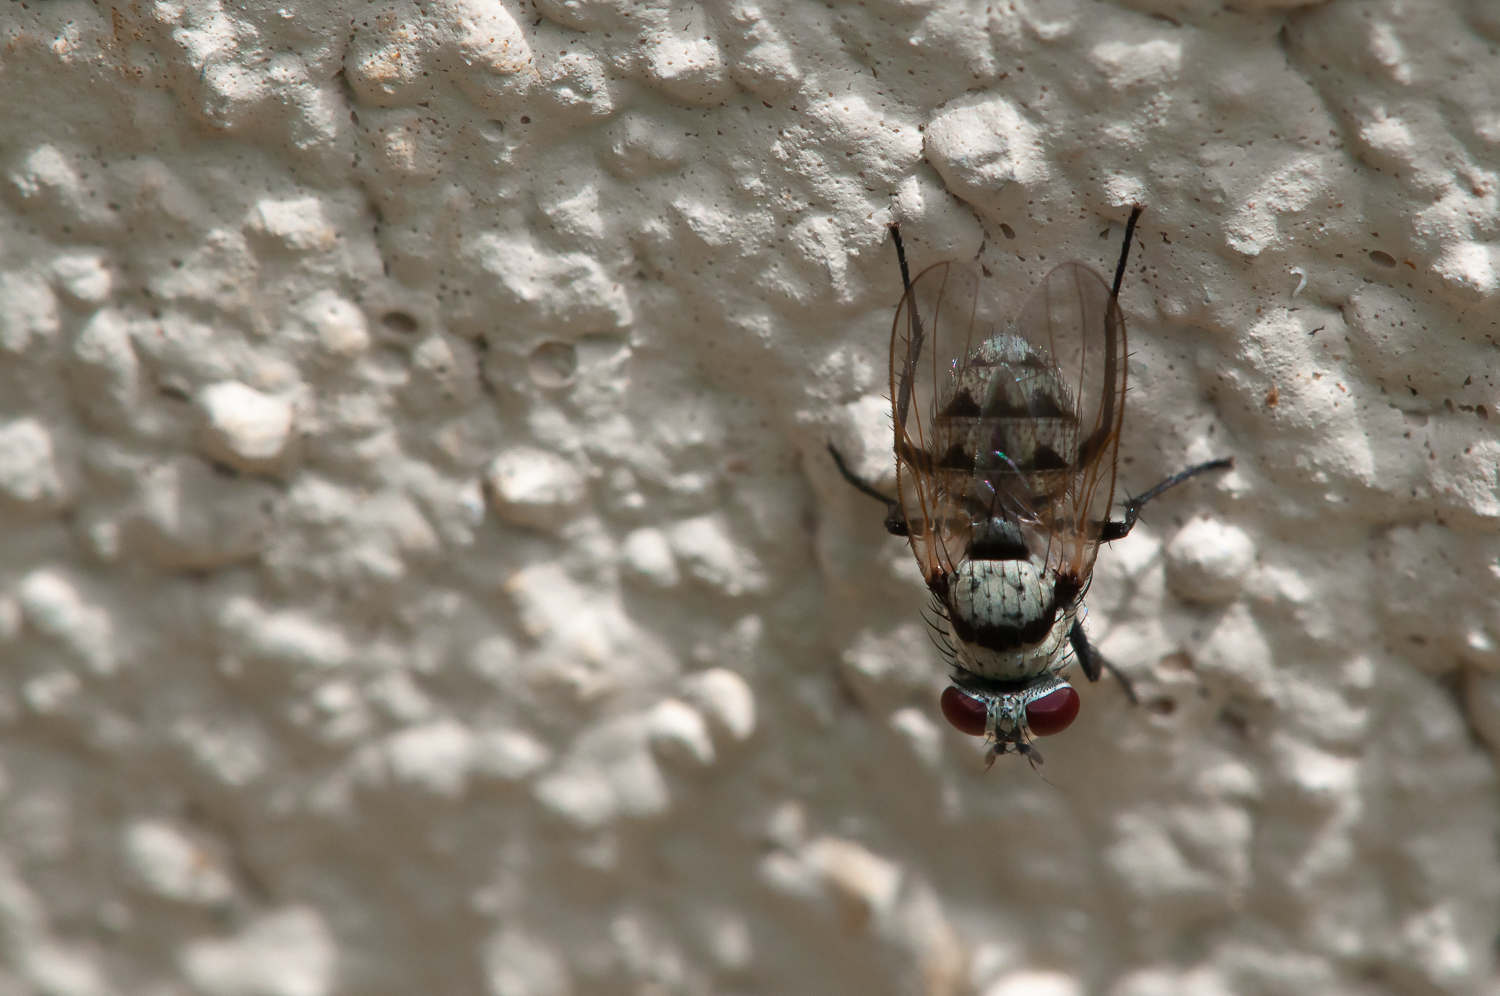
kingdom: Animalia
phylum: Arthropoda
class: Insecta
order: Diptera
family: Anthomyiidae
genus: Anthomyia
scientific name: Anthomyia illocata
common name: Fly
